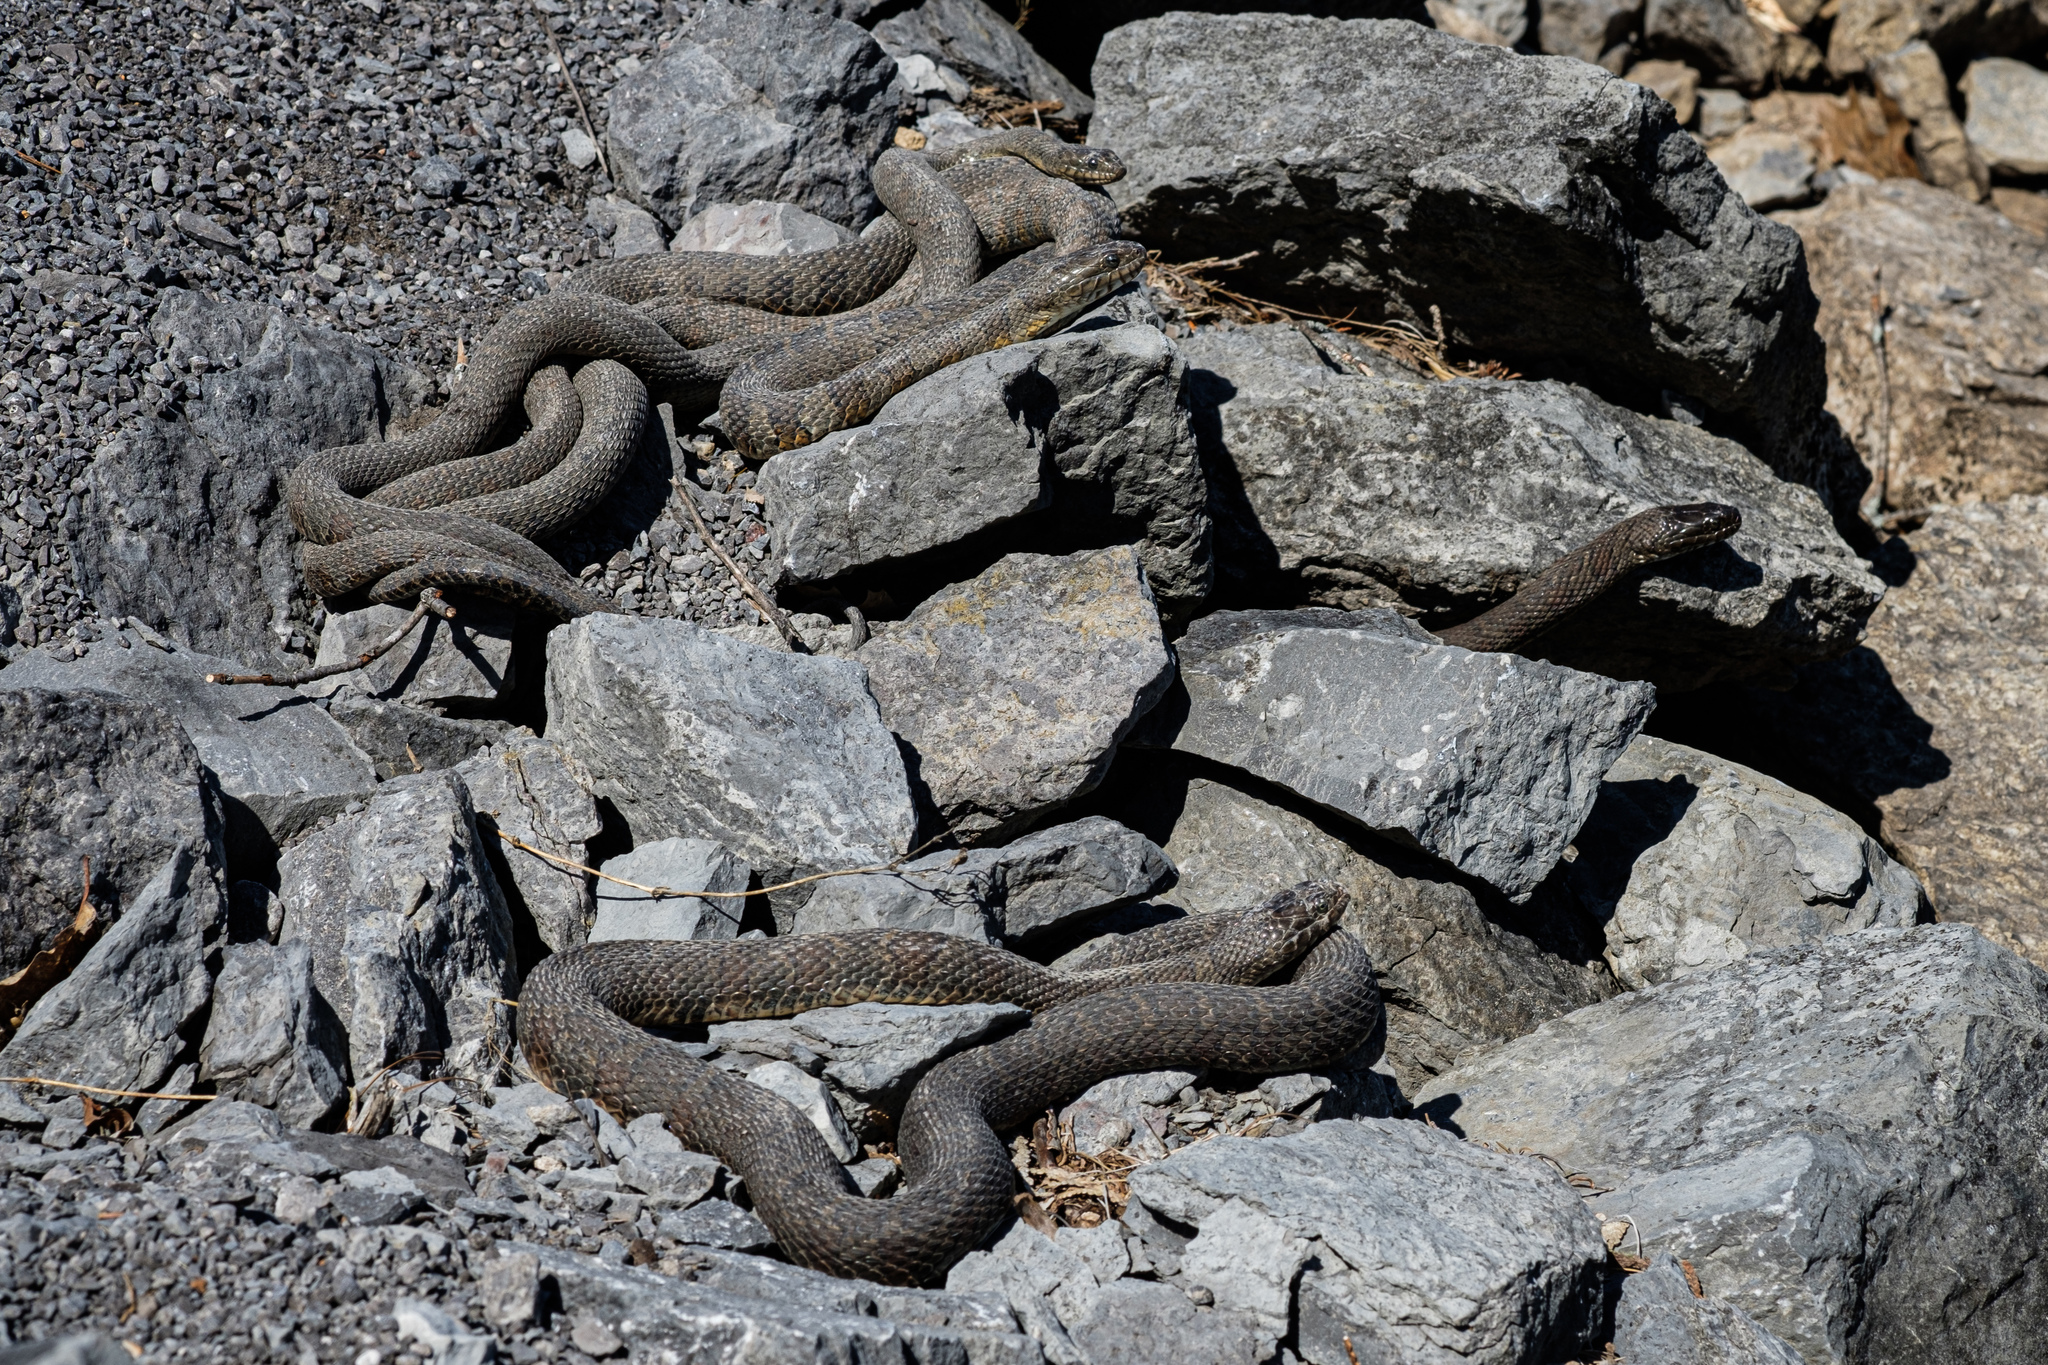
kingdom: Animalia
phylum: Chordata
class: Squamata
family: Colubridae
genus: Nerodia
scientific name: Nerodia sipedon
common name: Northern water snake
